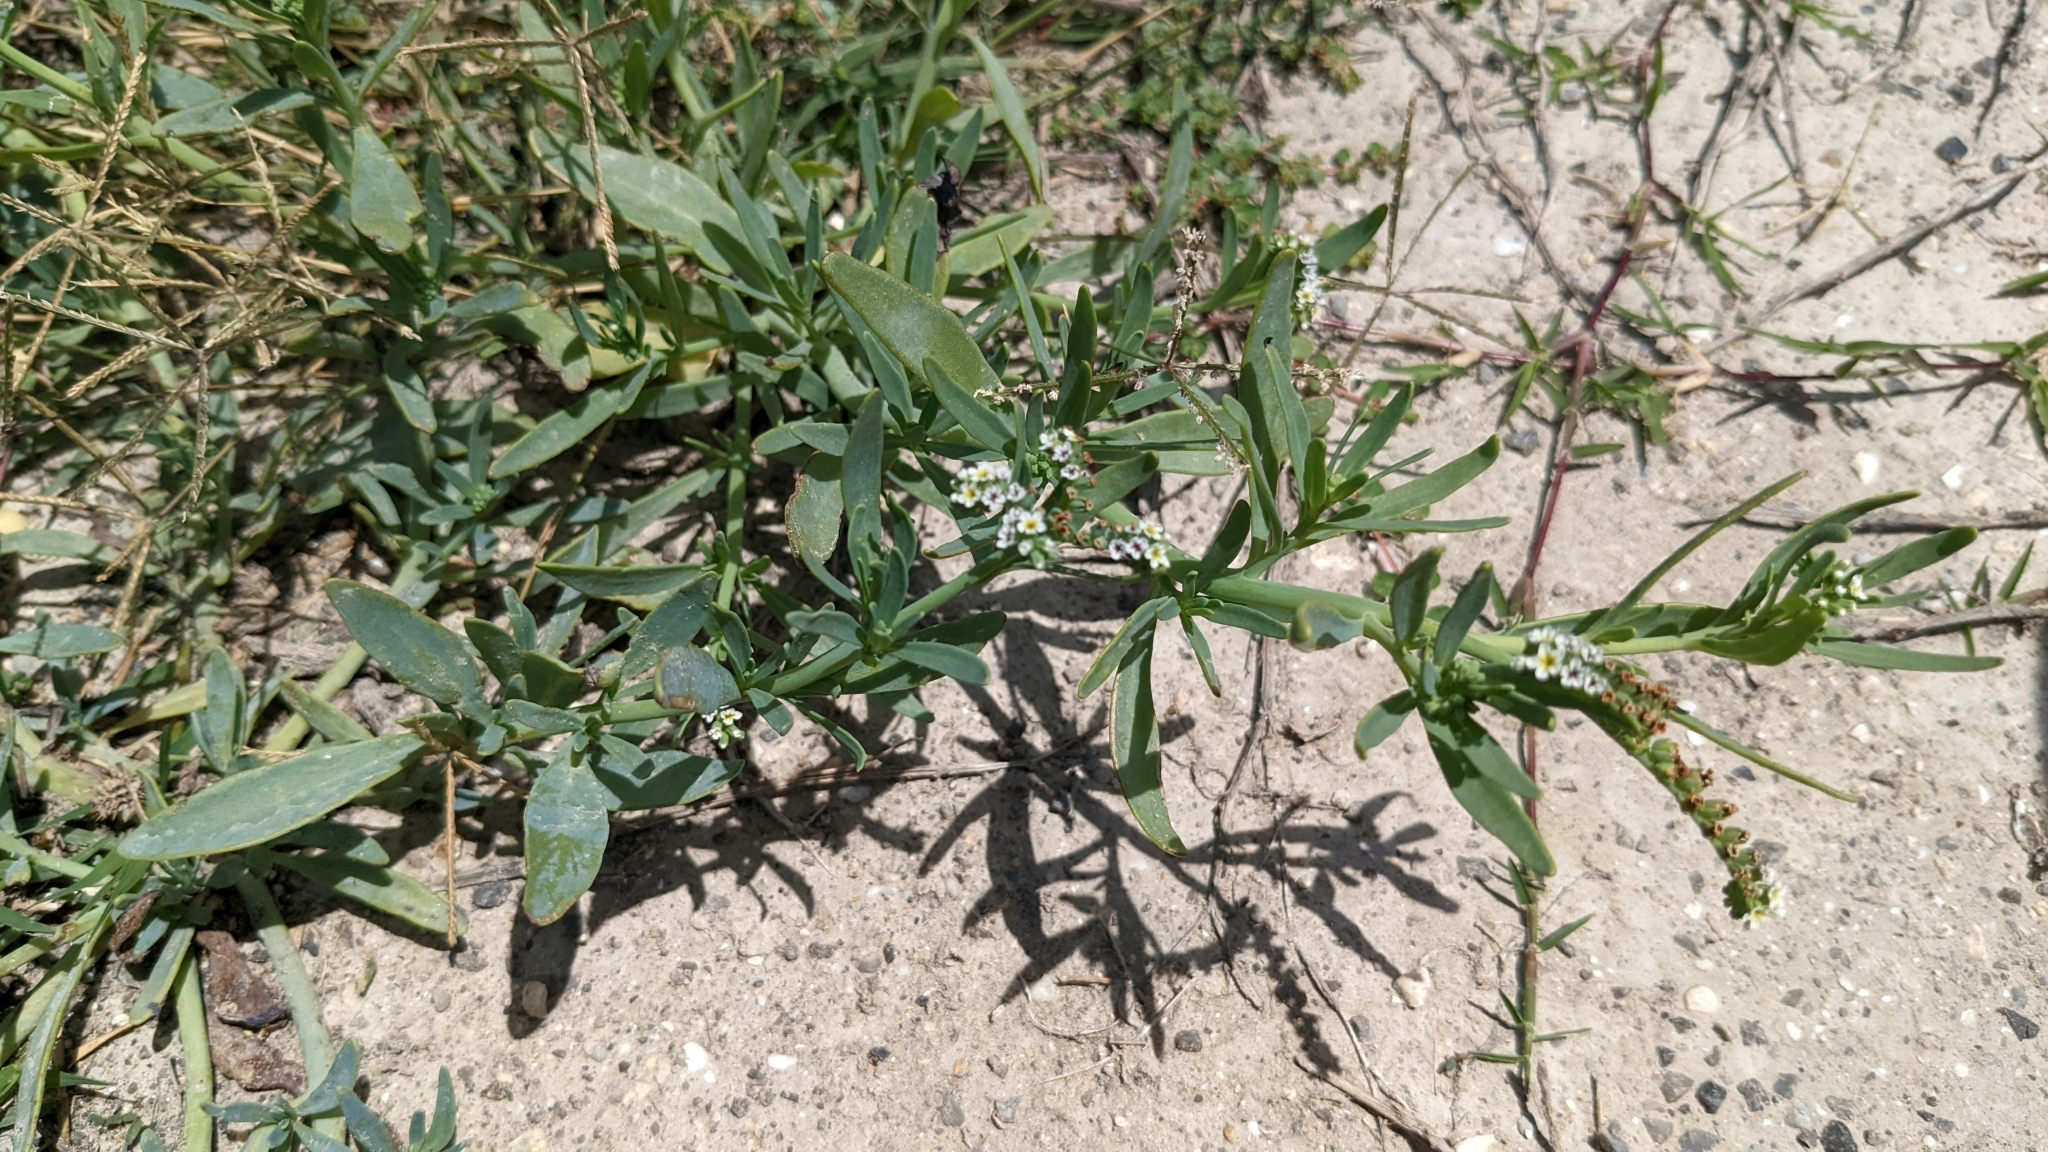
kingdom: Plantae
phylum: Tracheophyta
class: Magnoliopsida
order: Boraginales
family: Heliotropiaceae
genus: Heliotropium
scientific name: Heliotropium curassavicum
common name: Seaside heliotrope
